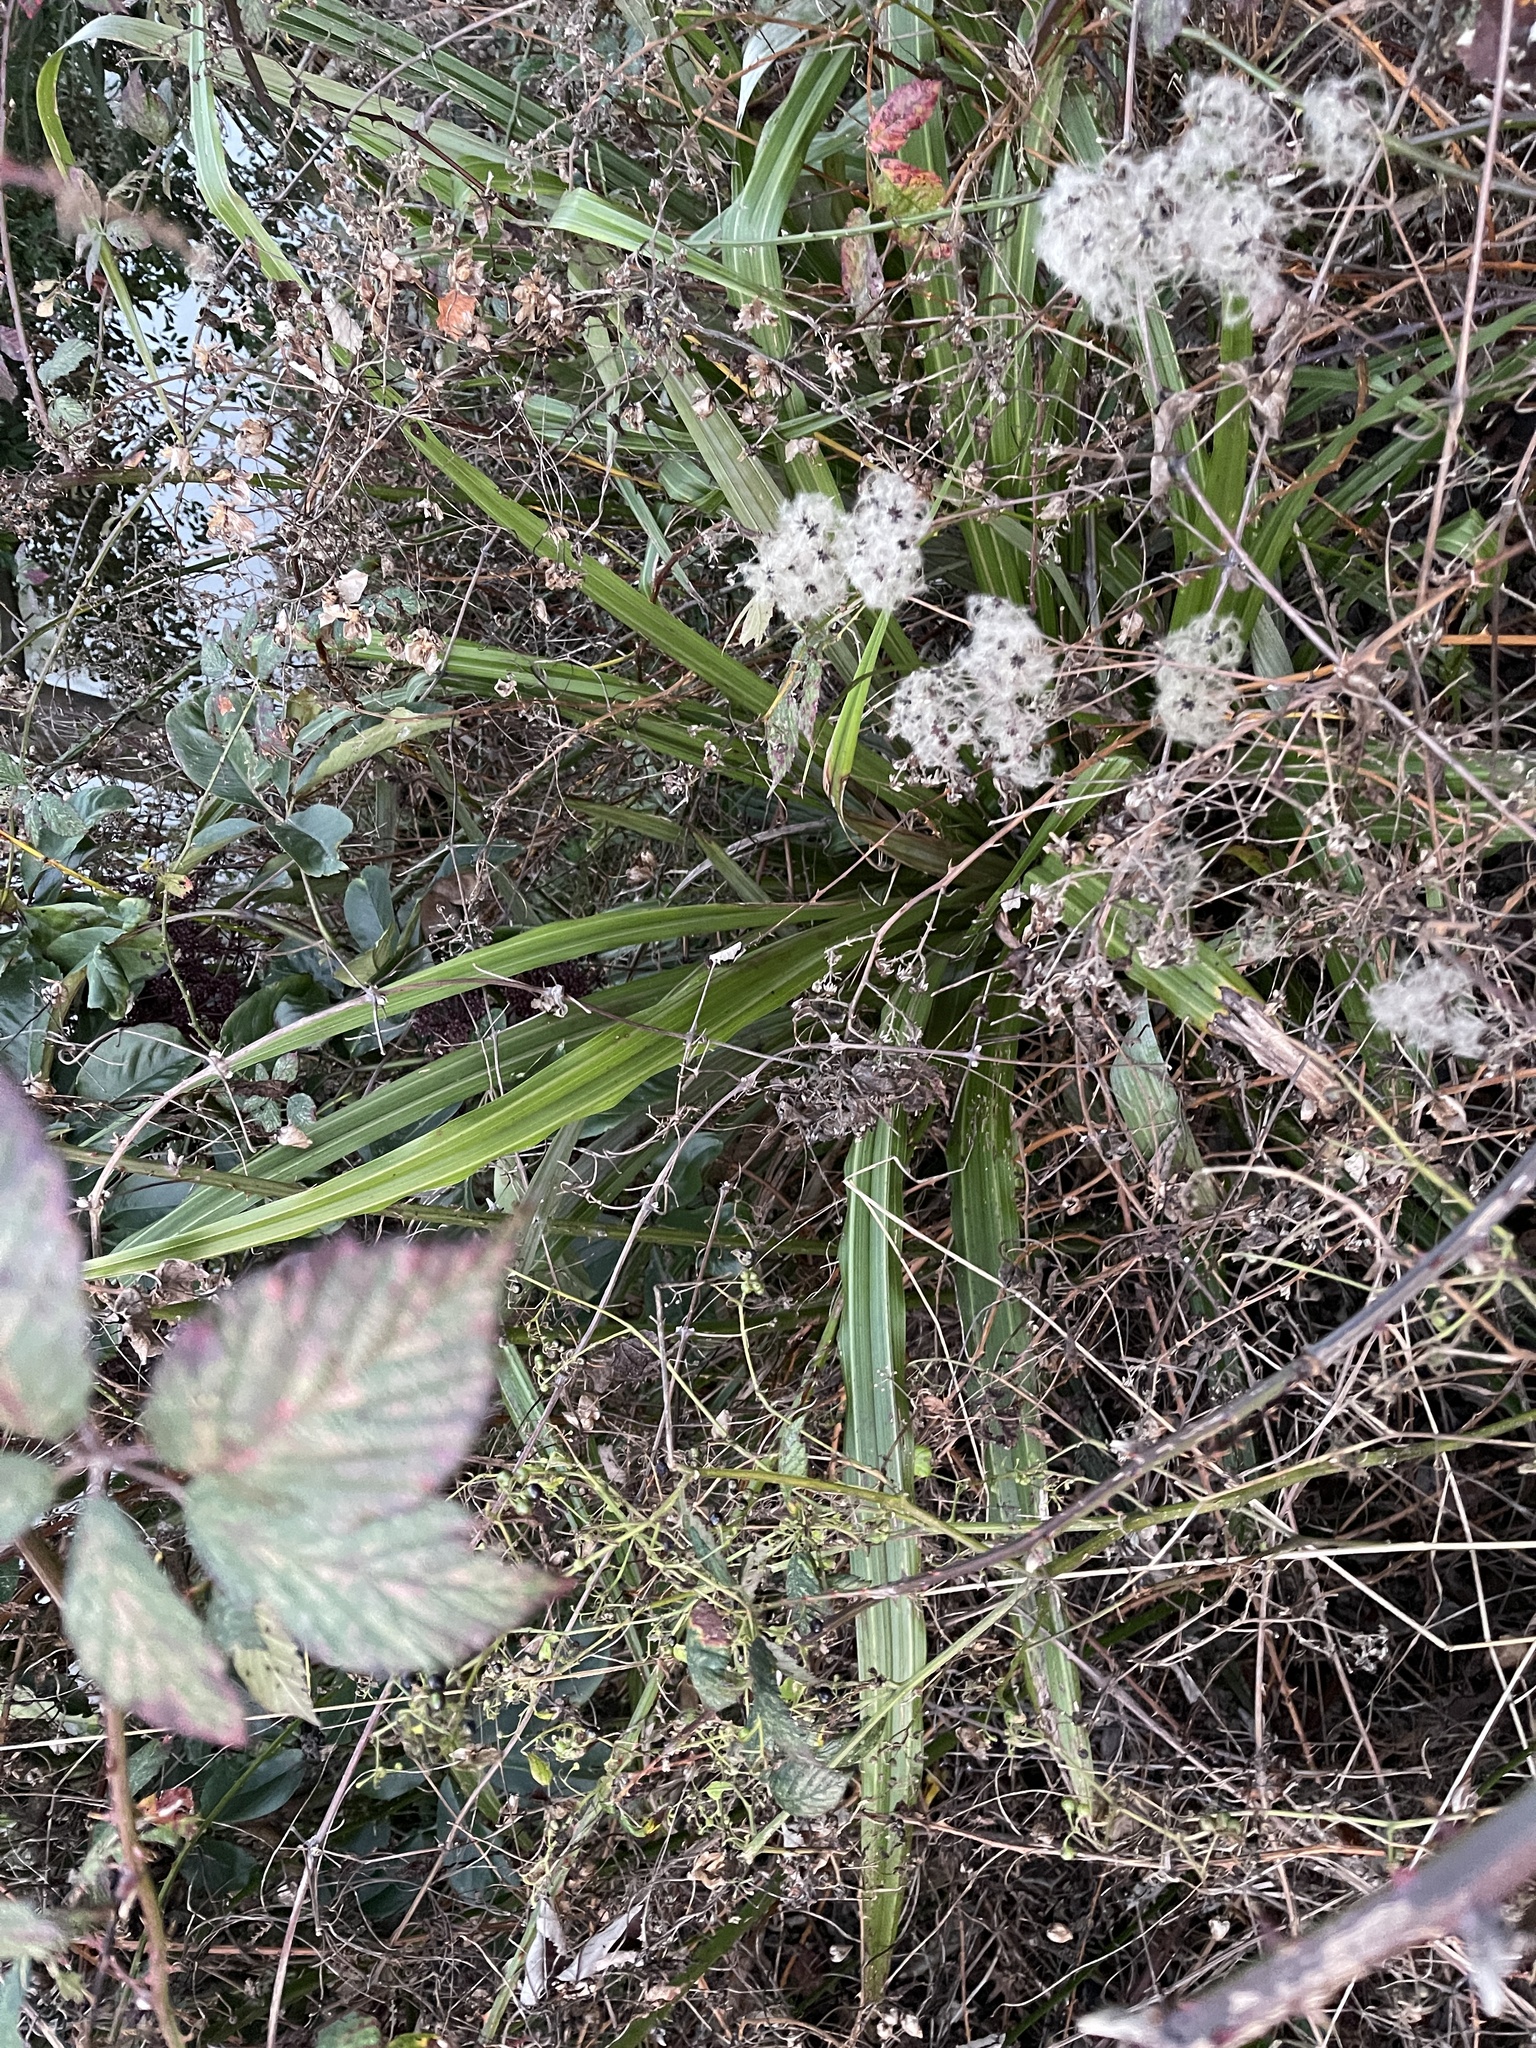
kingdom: Plantae
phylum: Tracheophyta
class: Liliopsida
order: Asparagales
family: Asteliaceae
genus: Astelia
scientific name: Astelia fragrans
